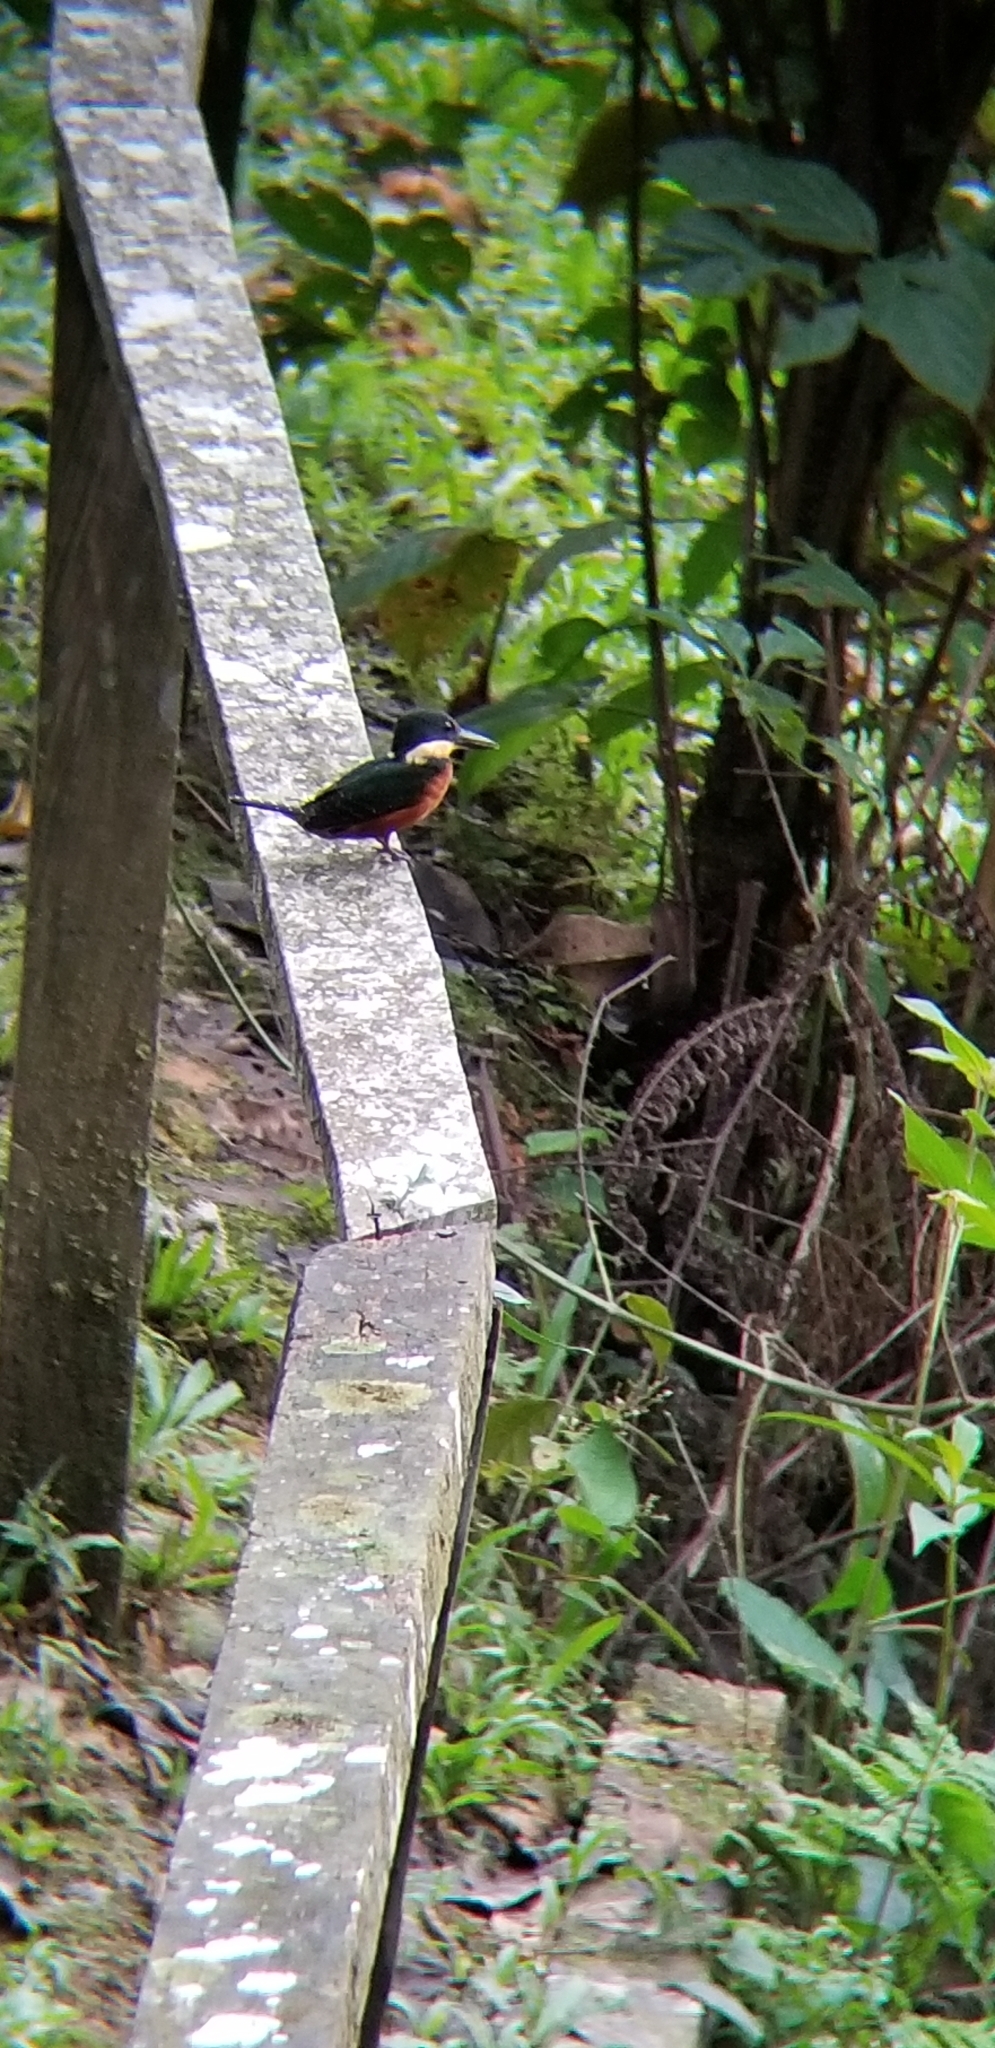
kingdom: Animalia
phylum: Chordata
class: Aves
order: Coraciiformes
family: Alcedinidae
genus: Chloroceryle
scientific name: Chloroceryle inda
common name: Green-and-rufous kingfisher
